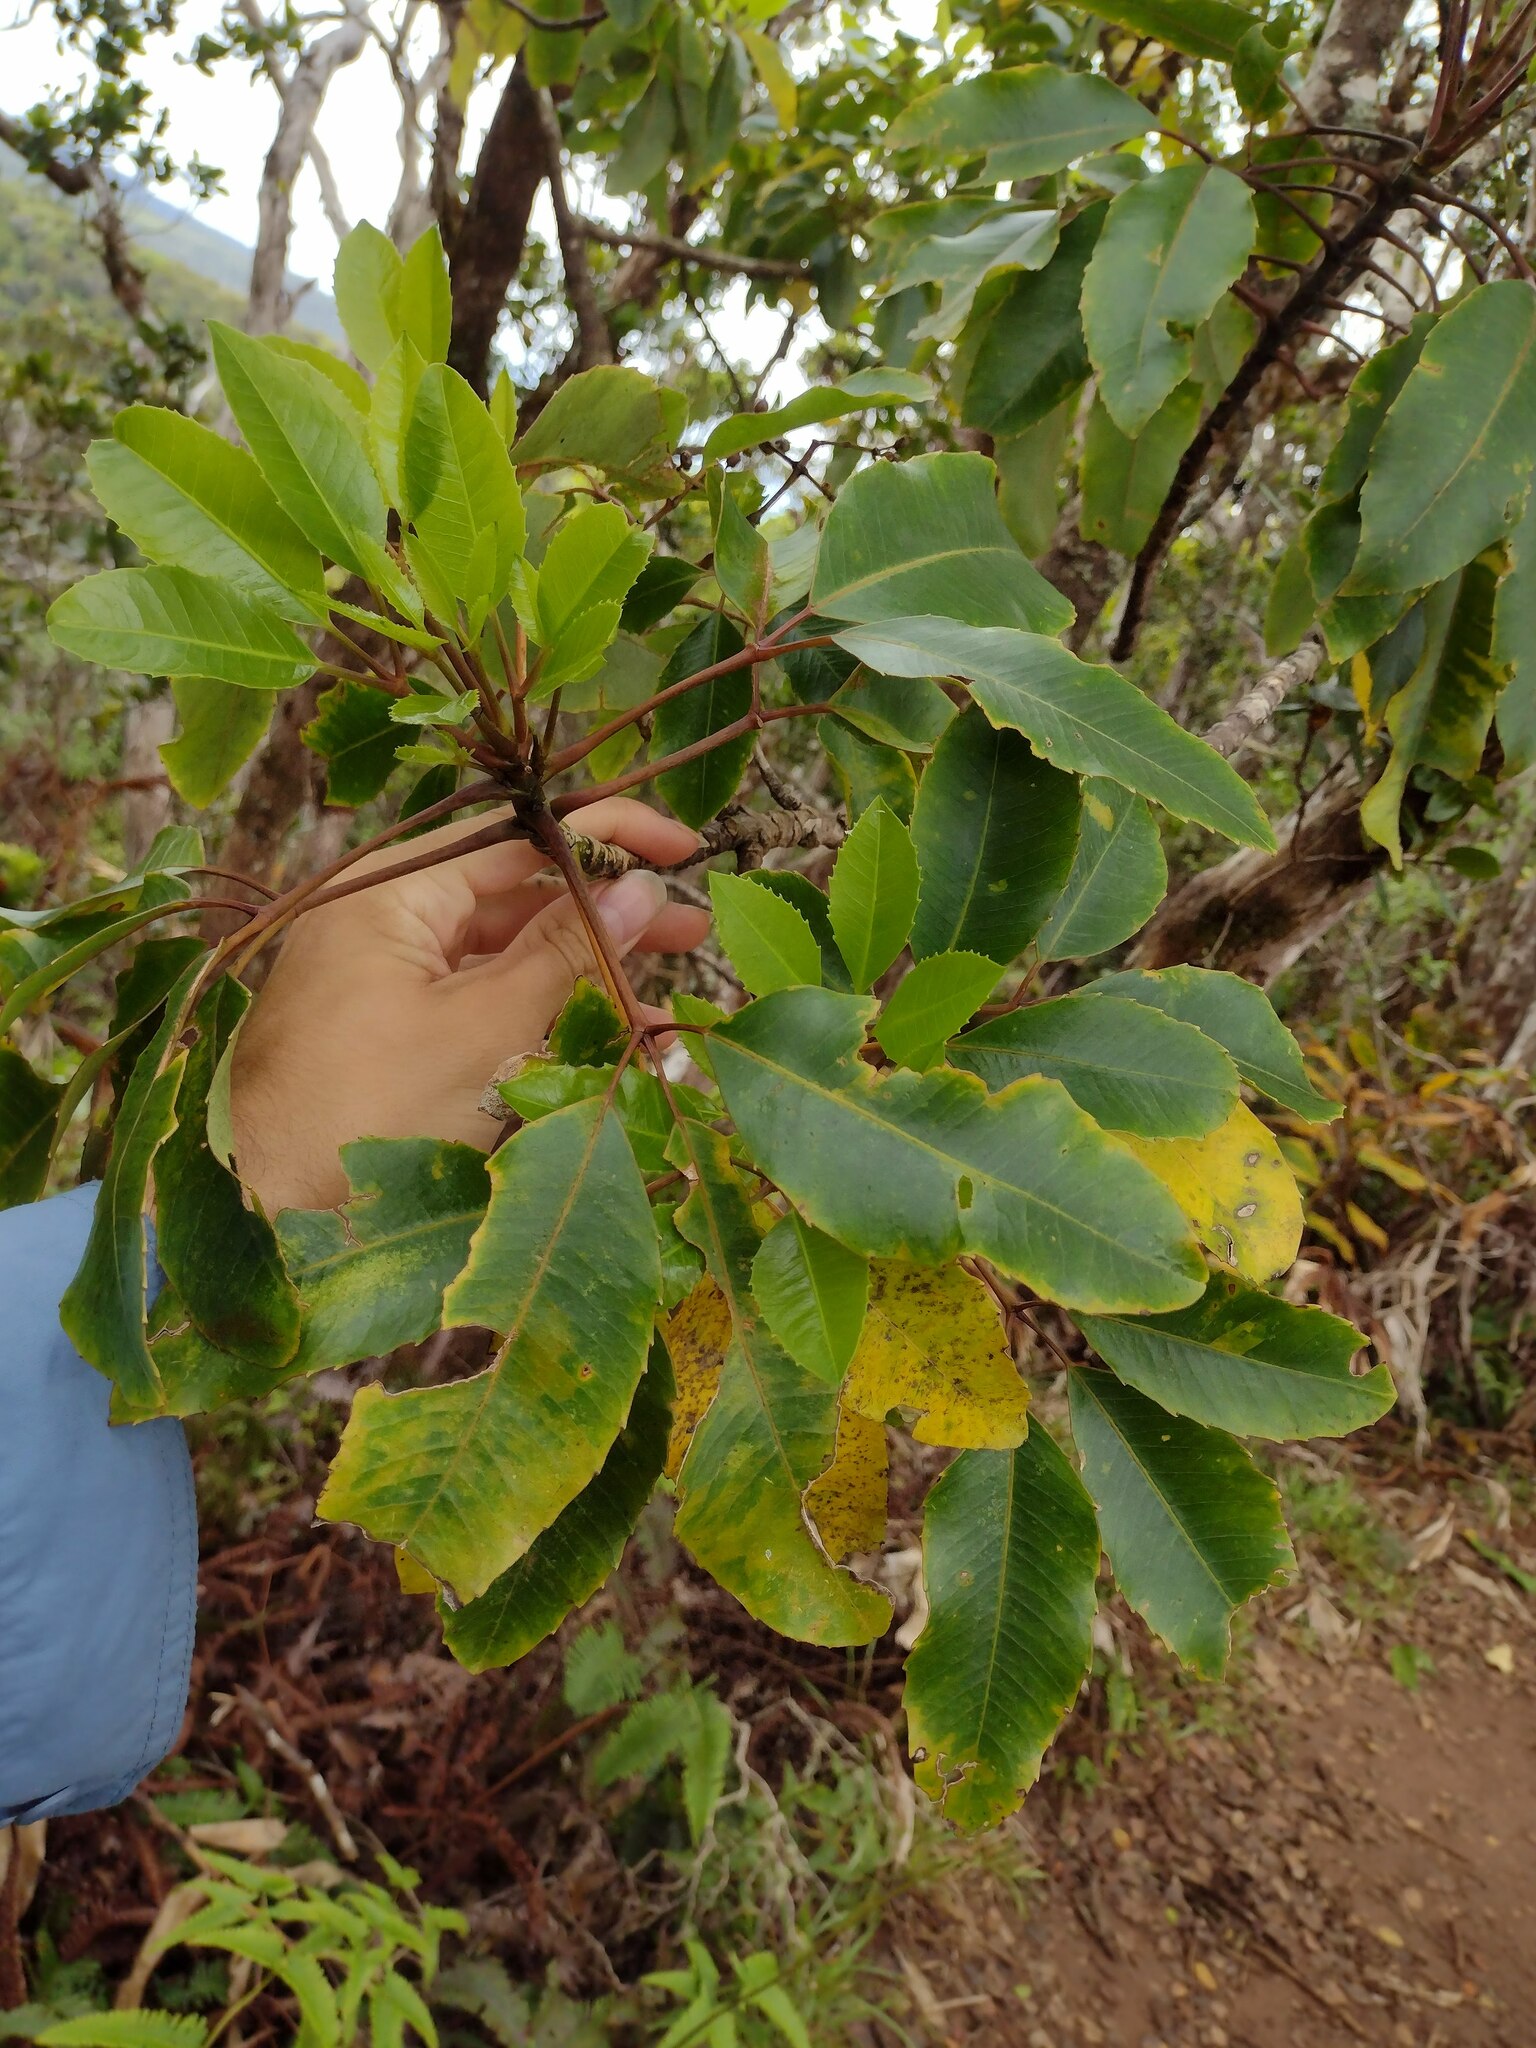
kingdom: Plantae
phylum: Tracheophyta
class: Magnoliopsida
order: Apiales
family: Araliaceae
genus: Cheirodendron
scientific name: Cheirodendron trigynum
